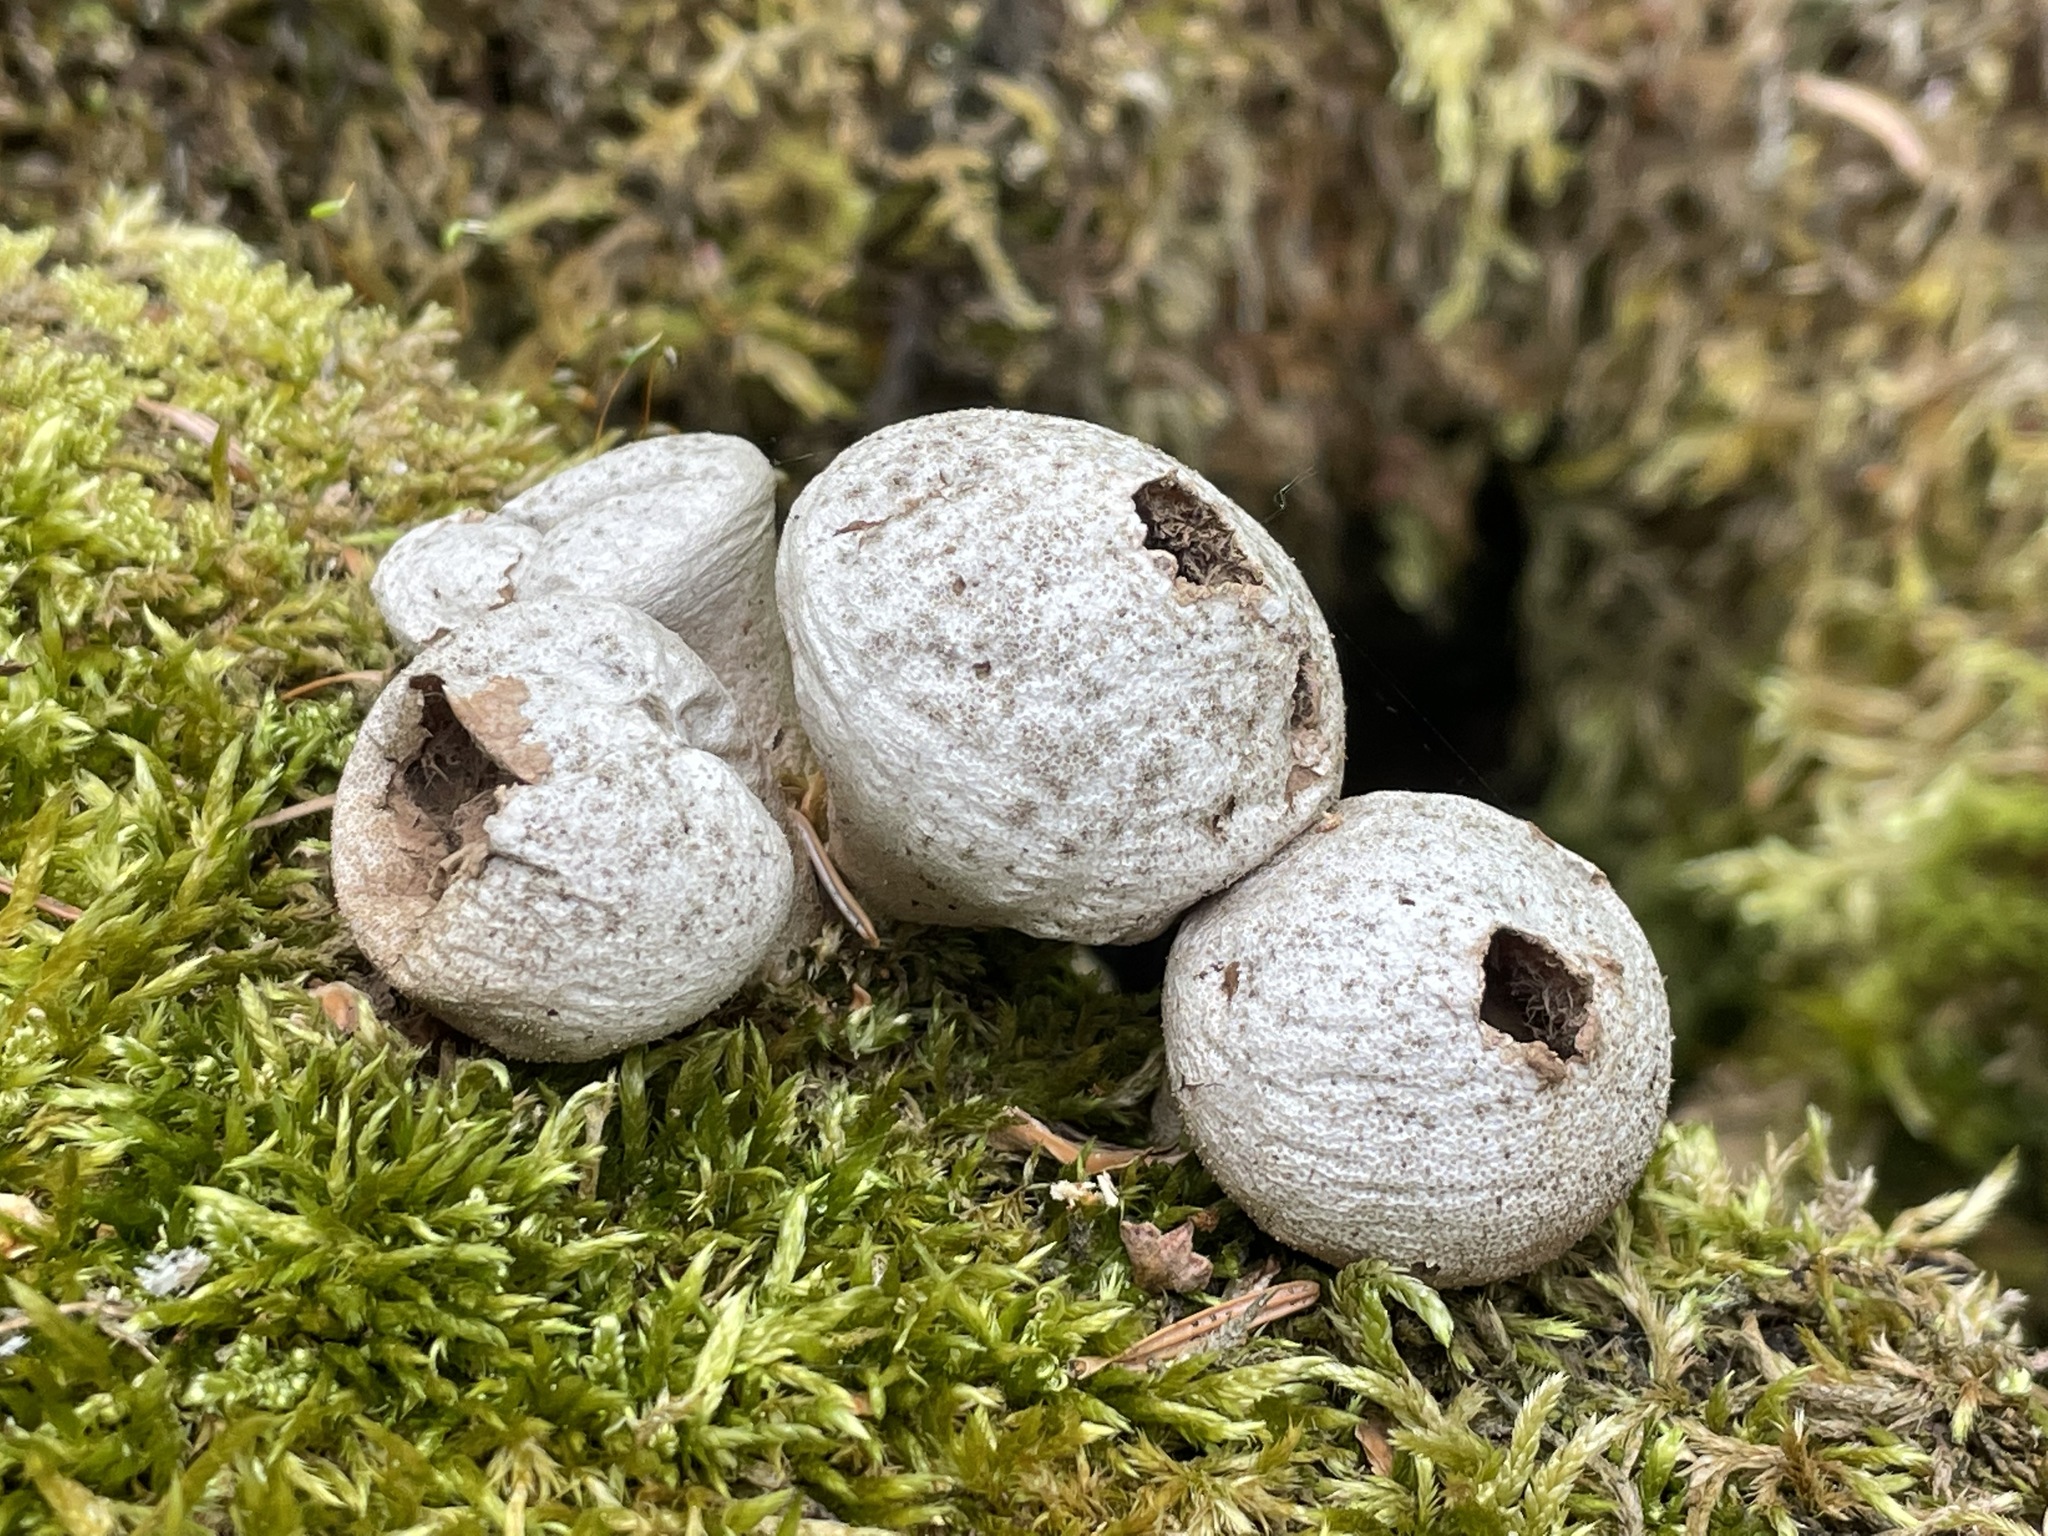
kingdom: Fungi
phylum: Basidiomycota
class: Agaricomycetes
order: Agaricales
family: Lycoperdaceae
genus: Apioperdon
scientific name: Apioperdon pyriforme
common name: Pear-shaped puffball
